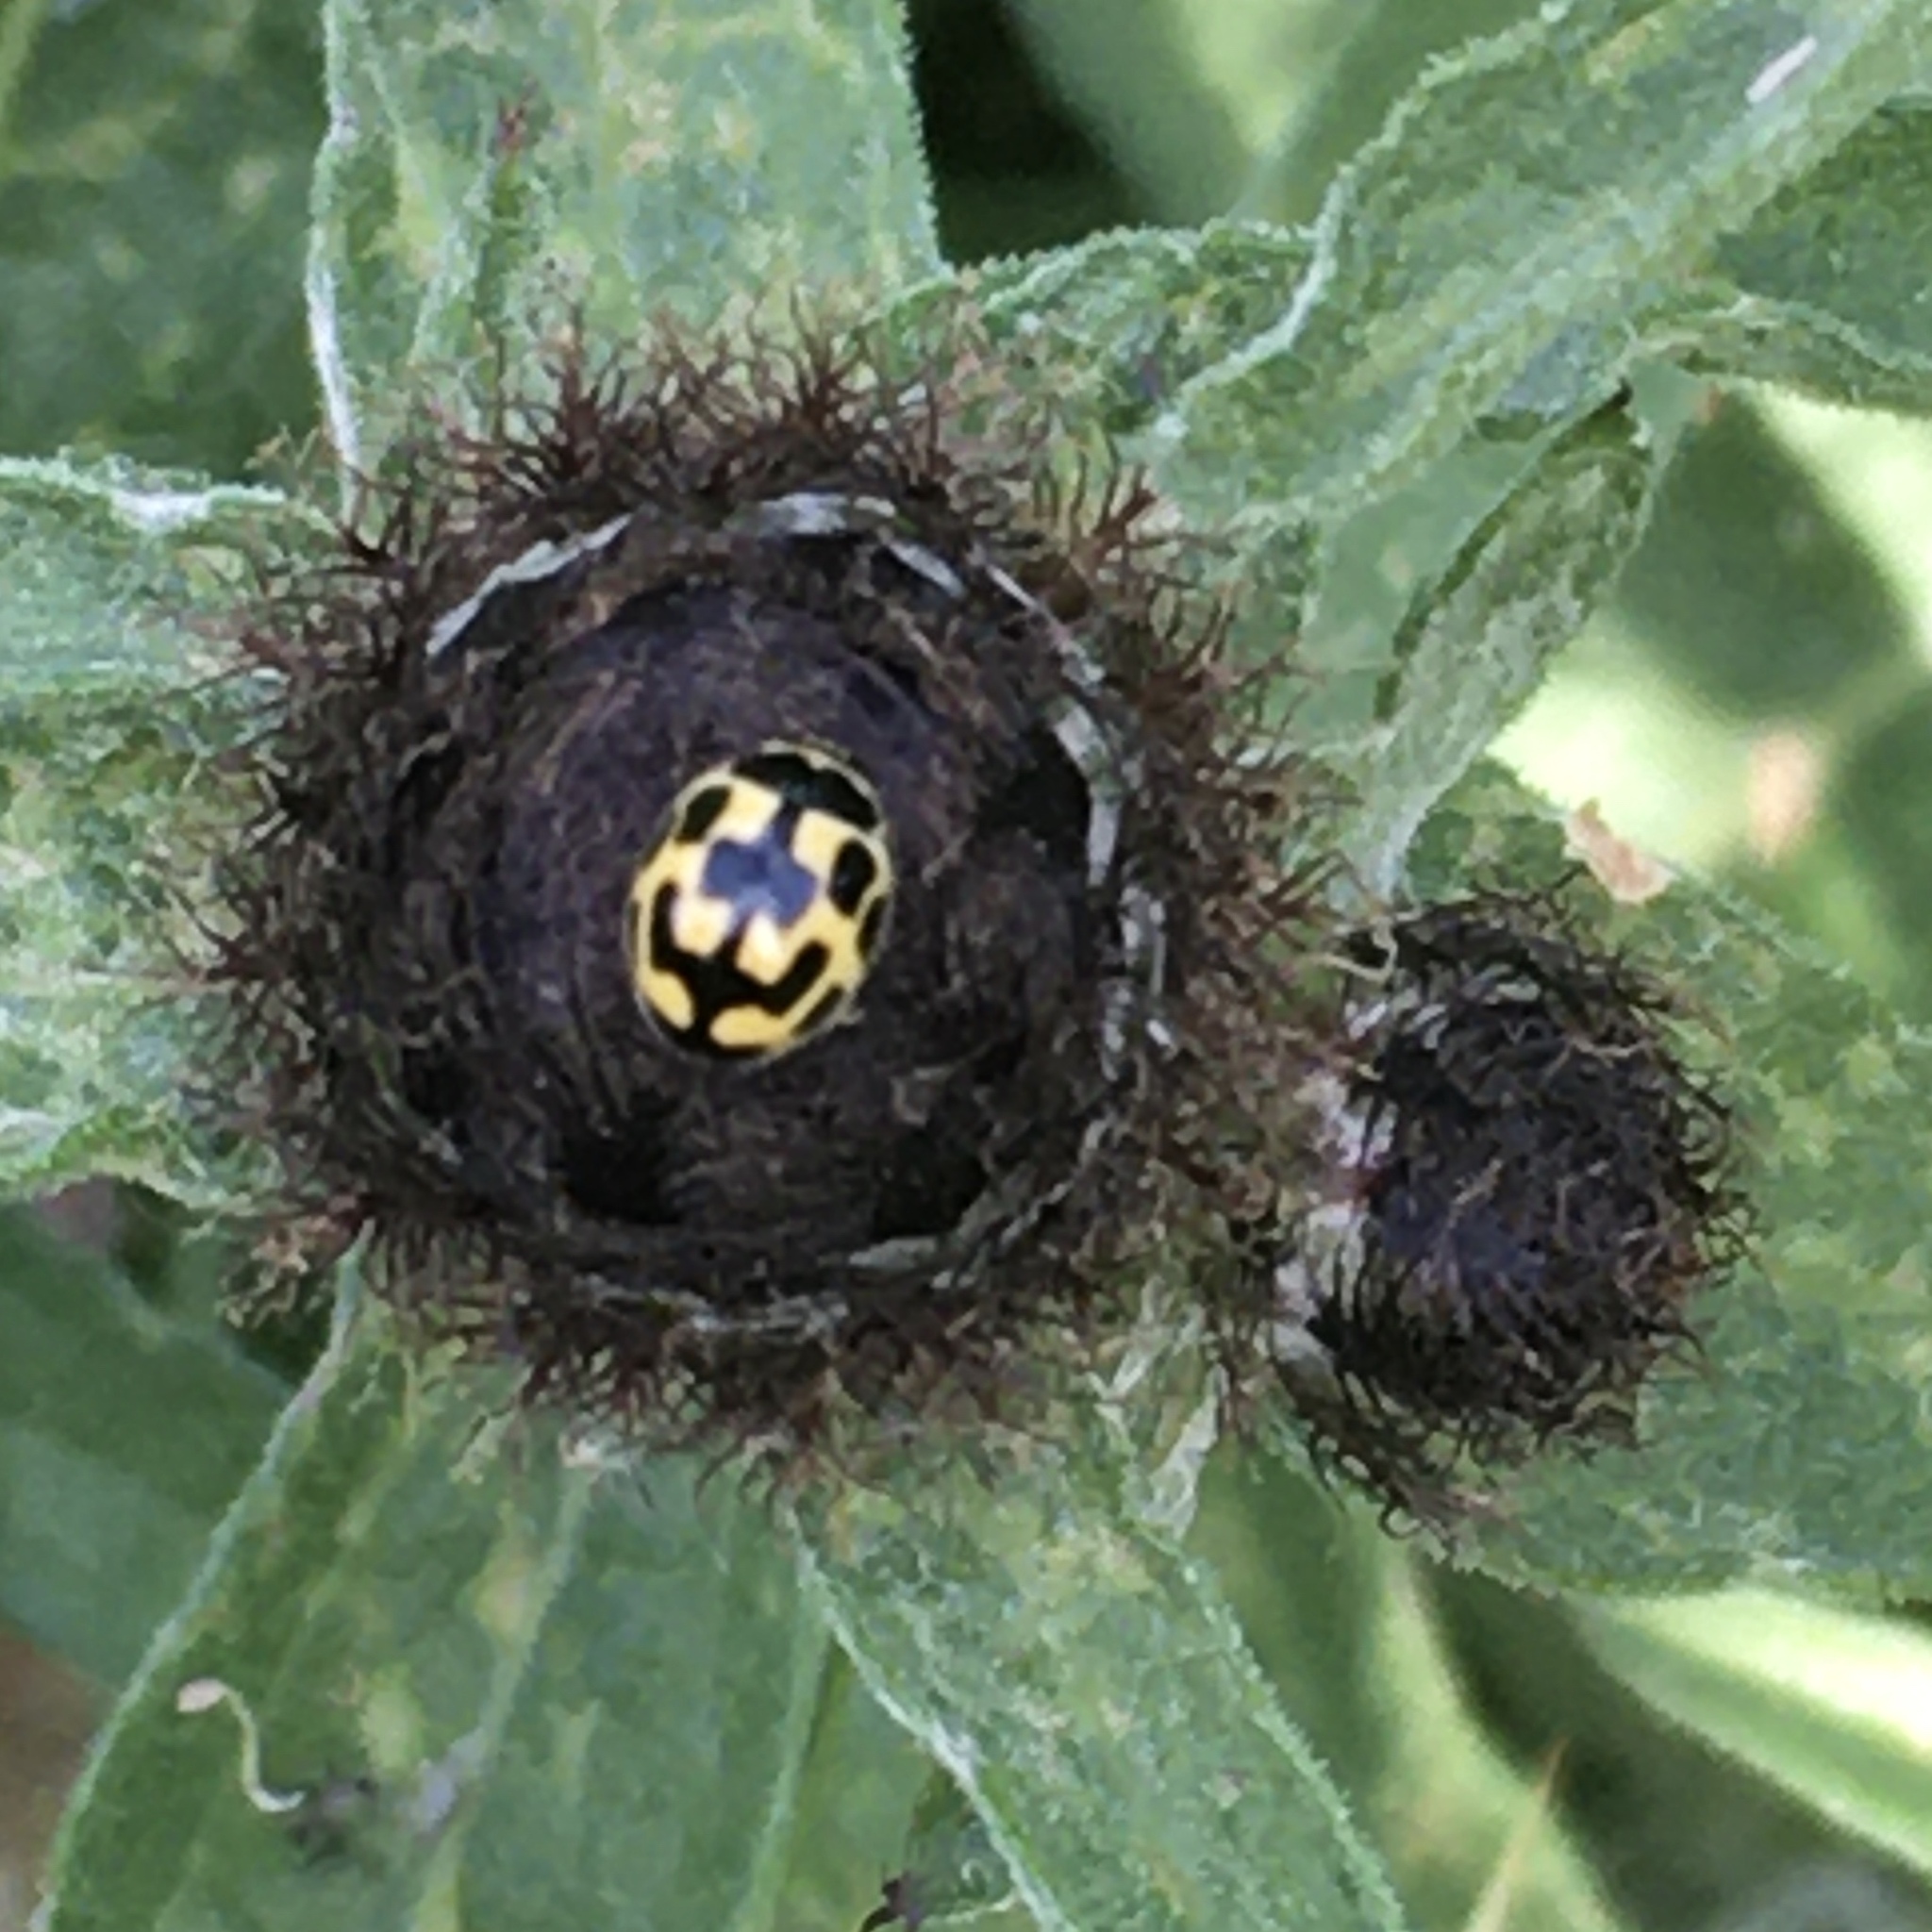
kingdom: Animalia
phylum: Arthropoda
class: Insecta
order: Coleoptera
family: Coccinellidae
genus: Propylaea
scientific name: Propylaea quatuordecimpunctata
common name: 14-spotted ladybird beetle
